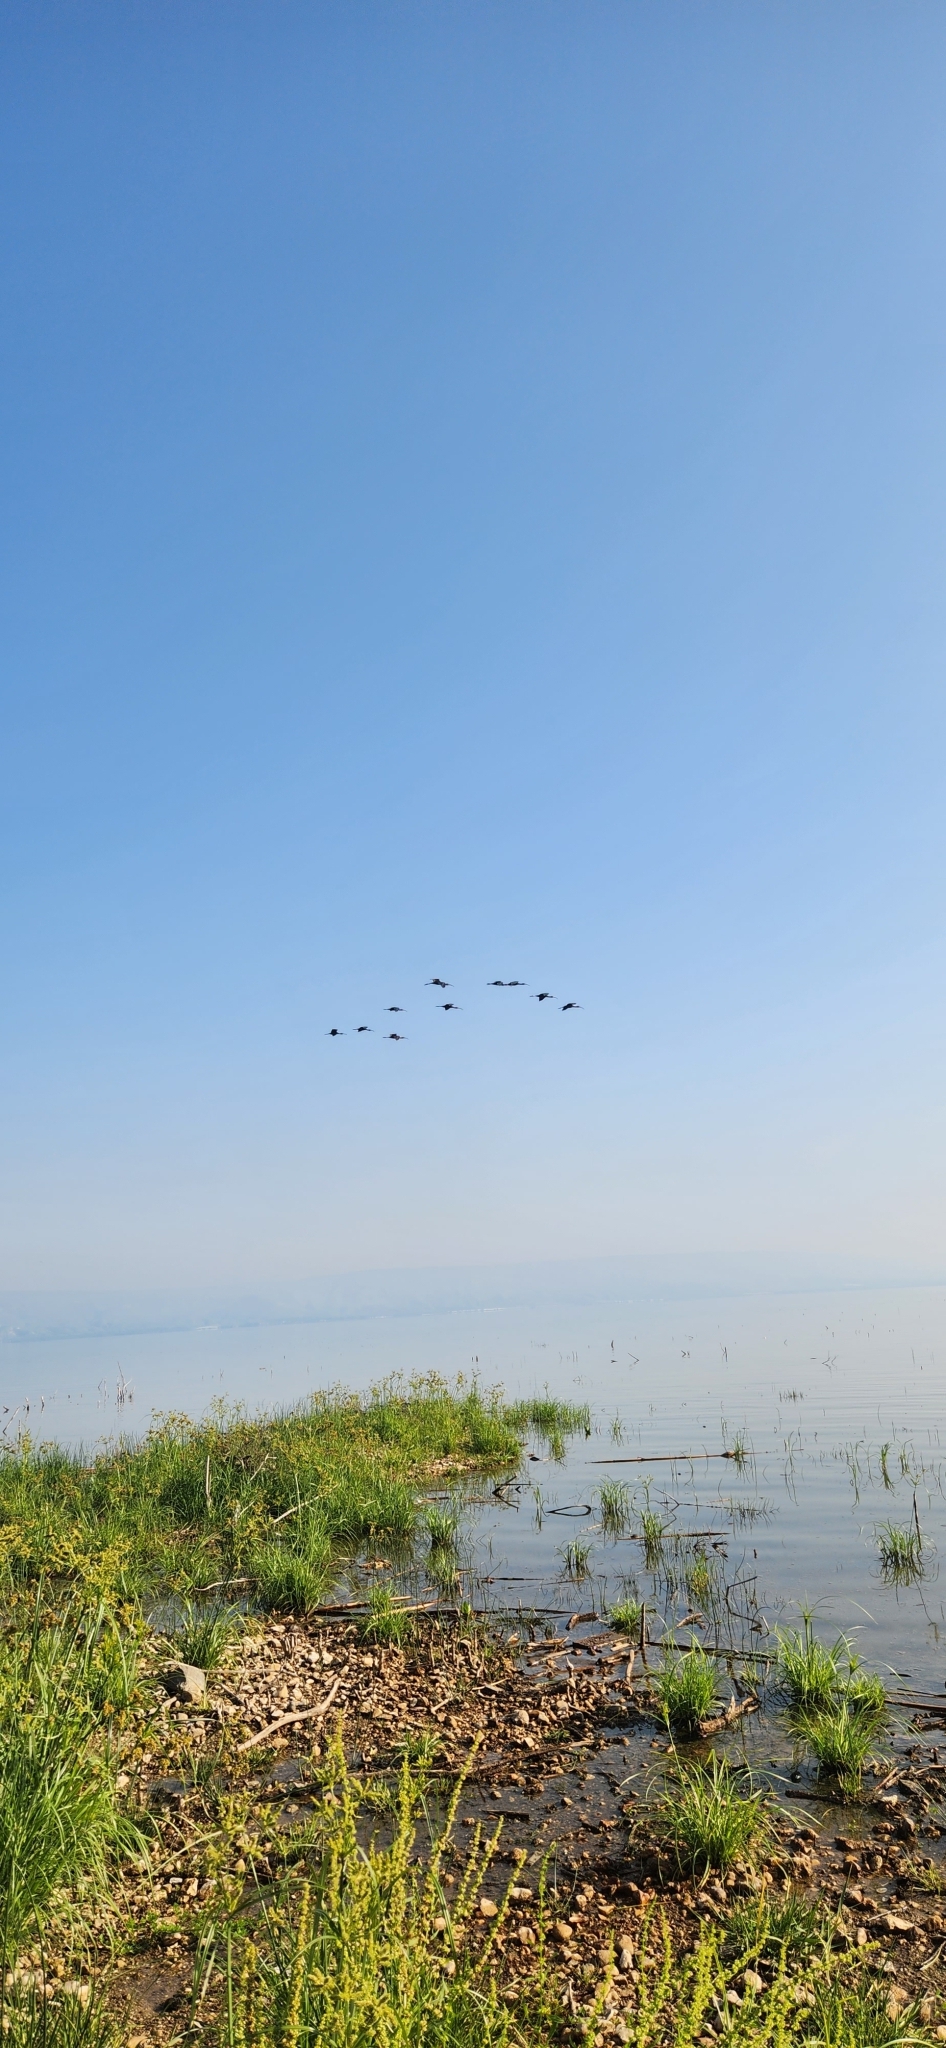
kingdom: Animalia
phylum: Chordata
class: Aves
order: Pelecaniformes
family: Threskiornithidae
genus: Plegadis
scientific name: Plegadis falcinellus
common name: Glossy ibis
